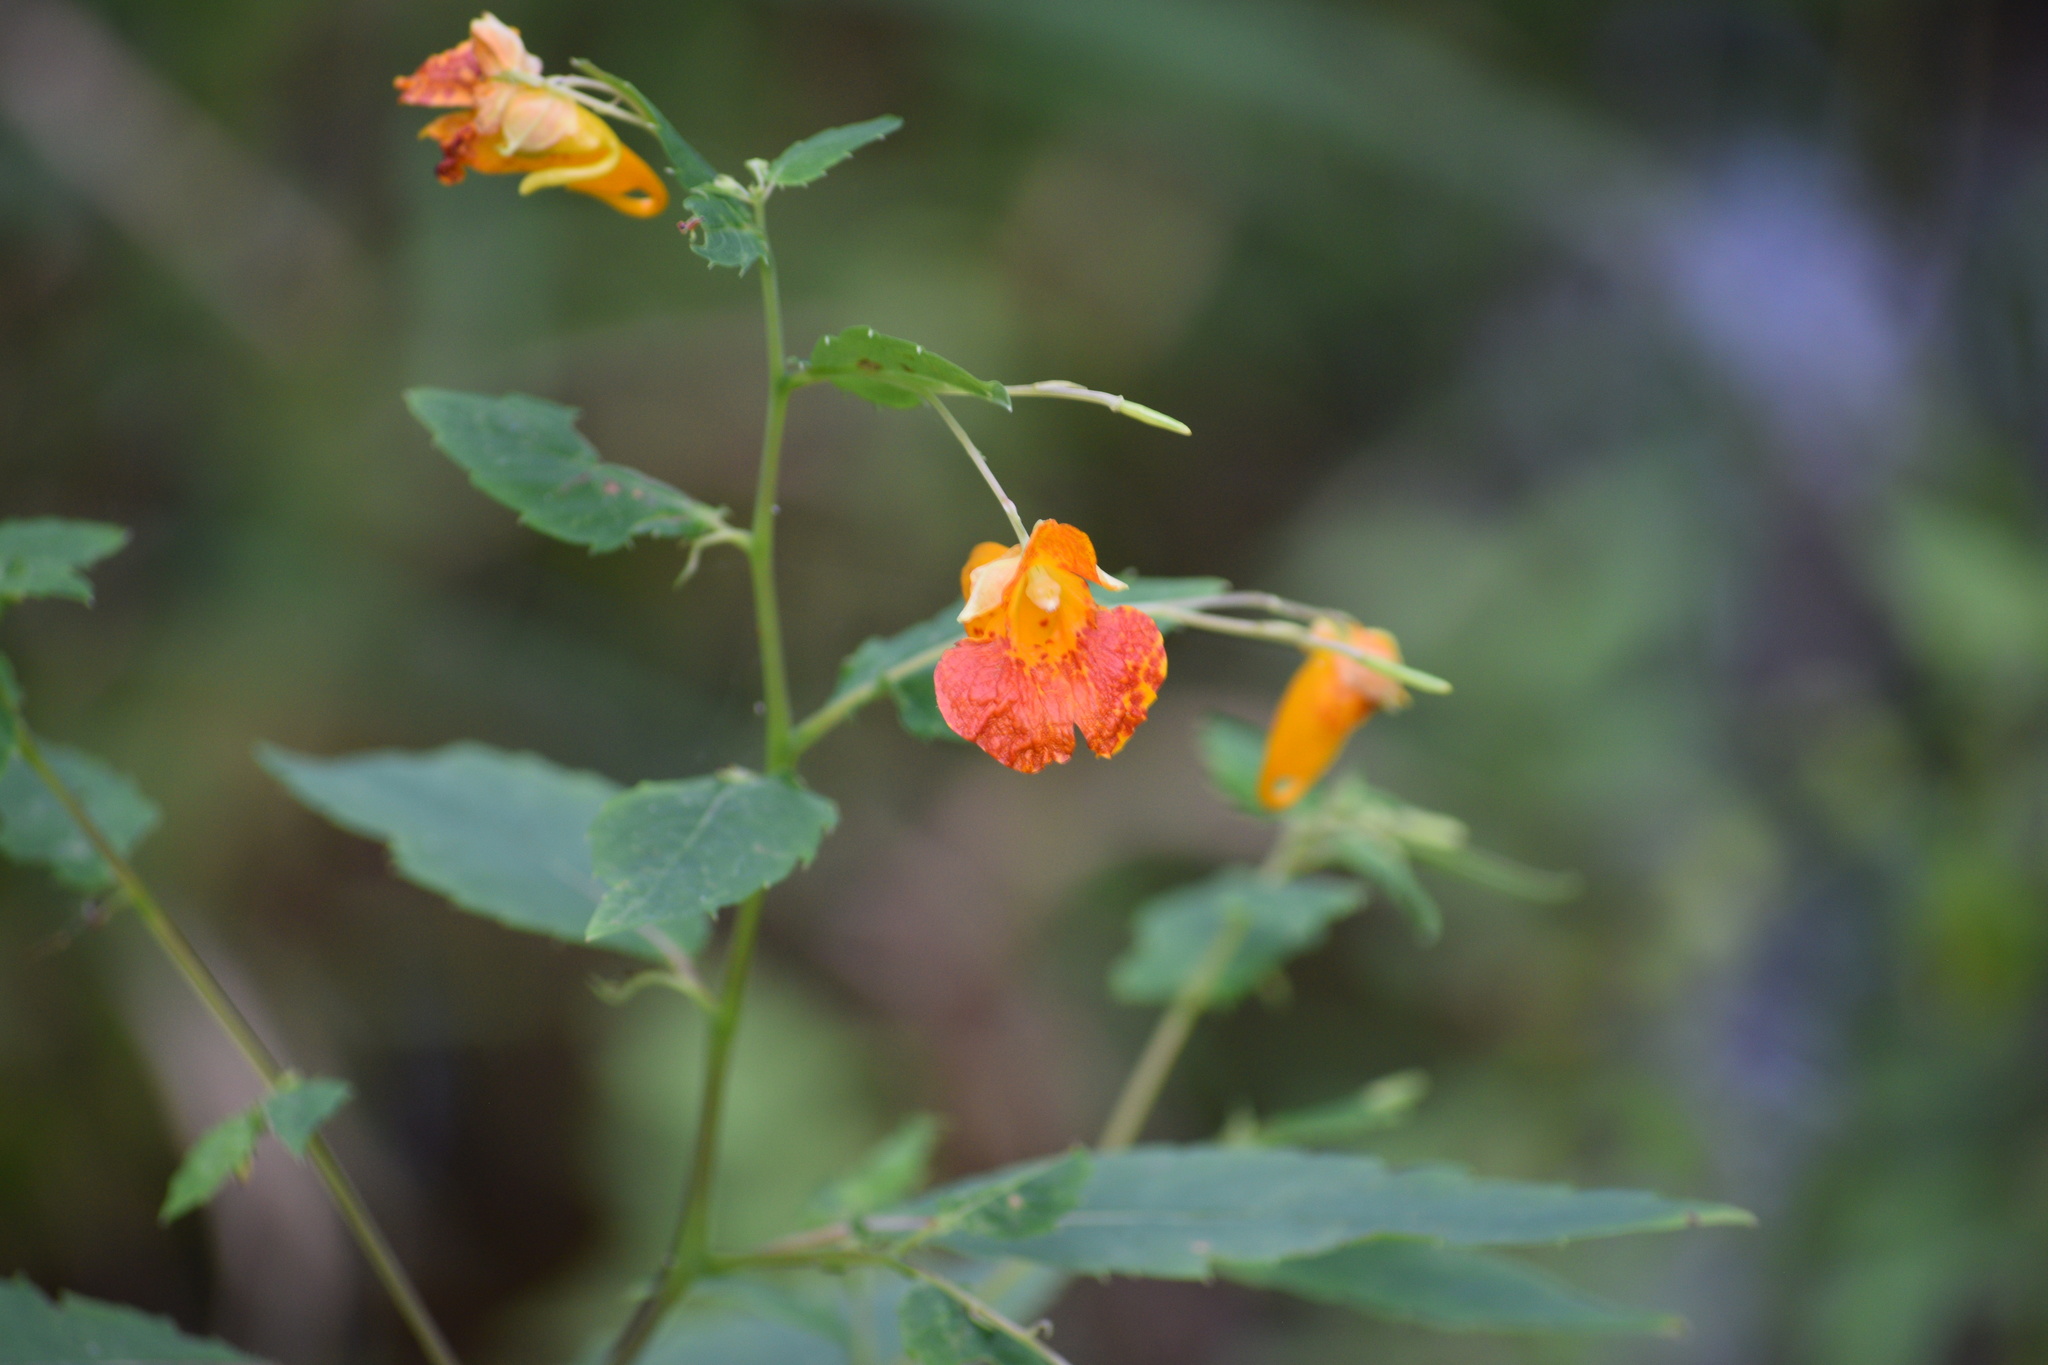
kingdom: Plantae
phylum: Tracheophyta
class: Magnoliopsida
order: Ericales
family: Balsaminaceae
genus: Impatiens
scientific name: Impatiens capensis
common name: Orange balsam
